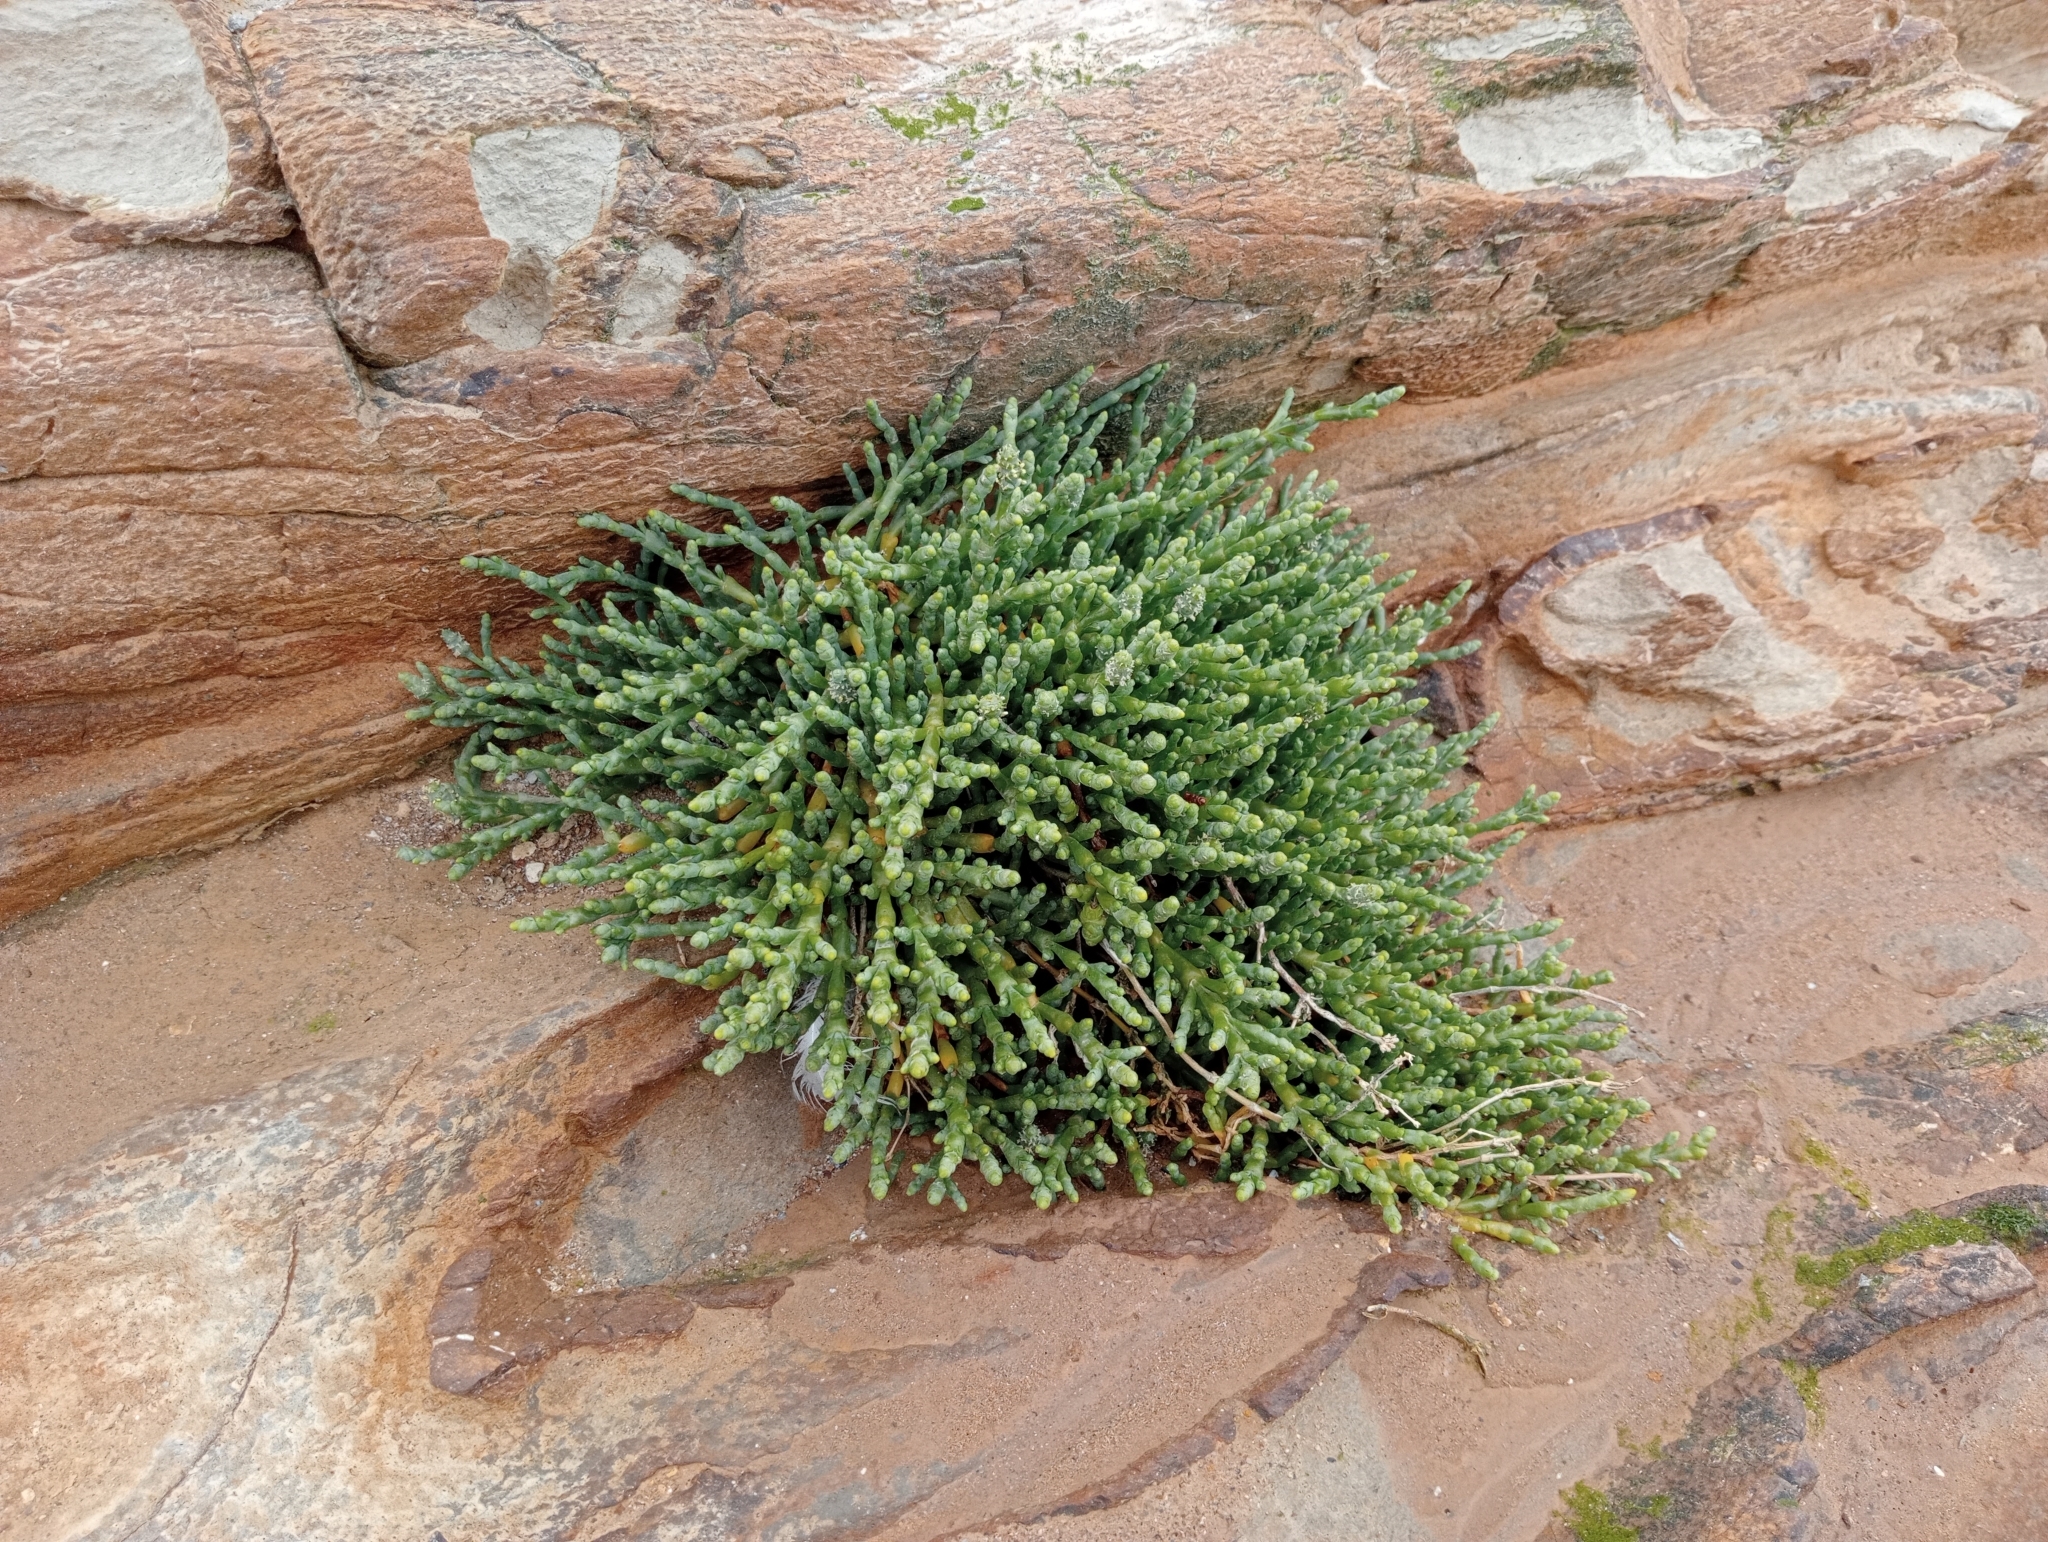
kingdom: Plantae
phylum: Tracheophyta
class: Magnoliopsida
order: Caryophyllales
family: Amaranthaceae
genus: Salicornia
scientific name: Salicornia quinqueflora
